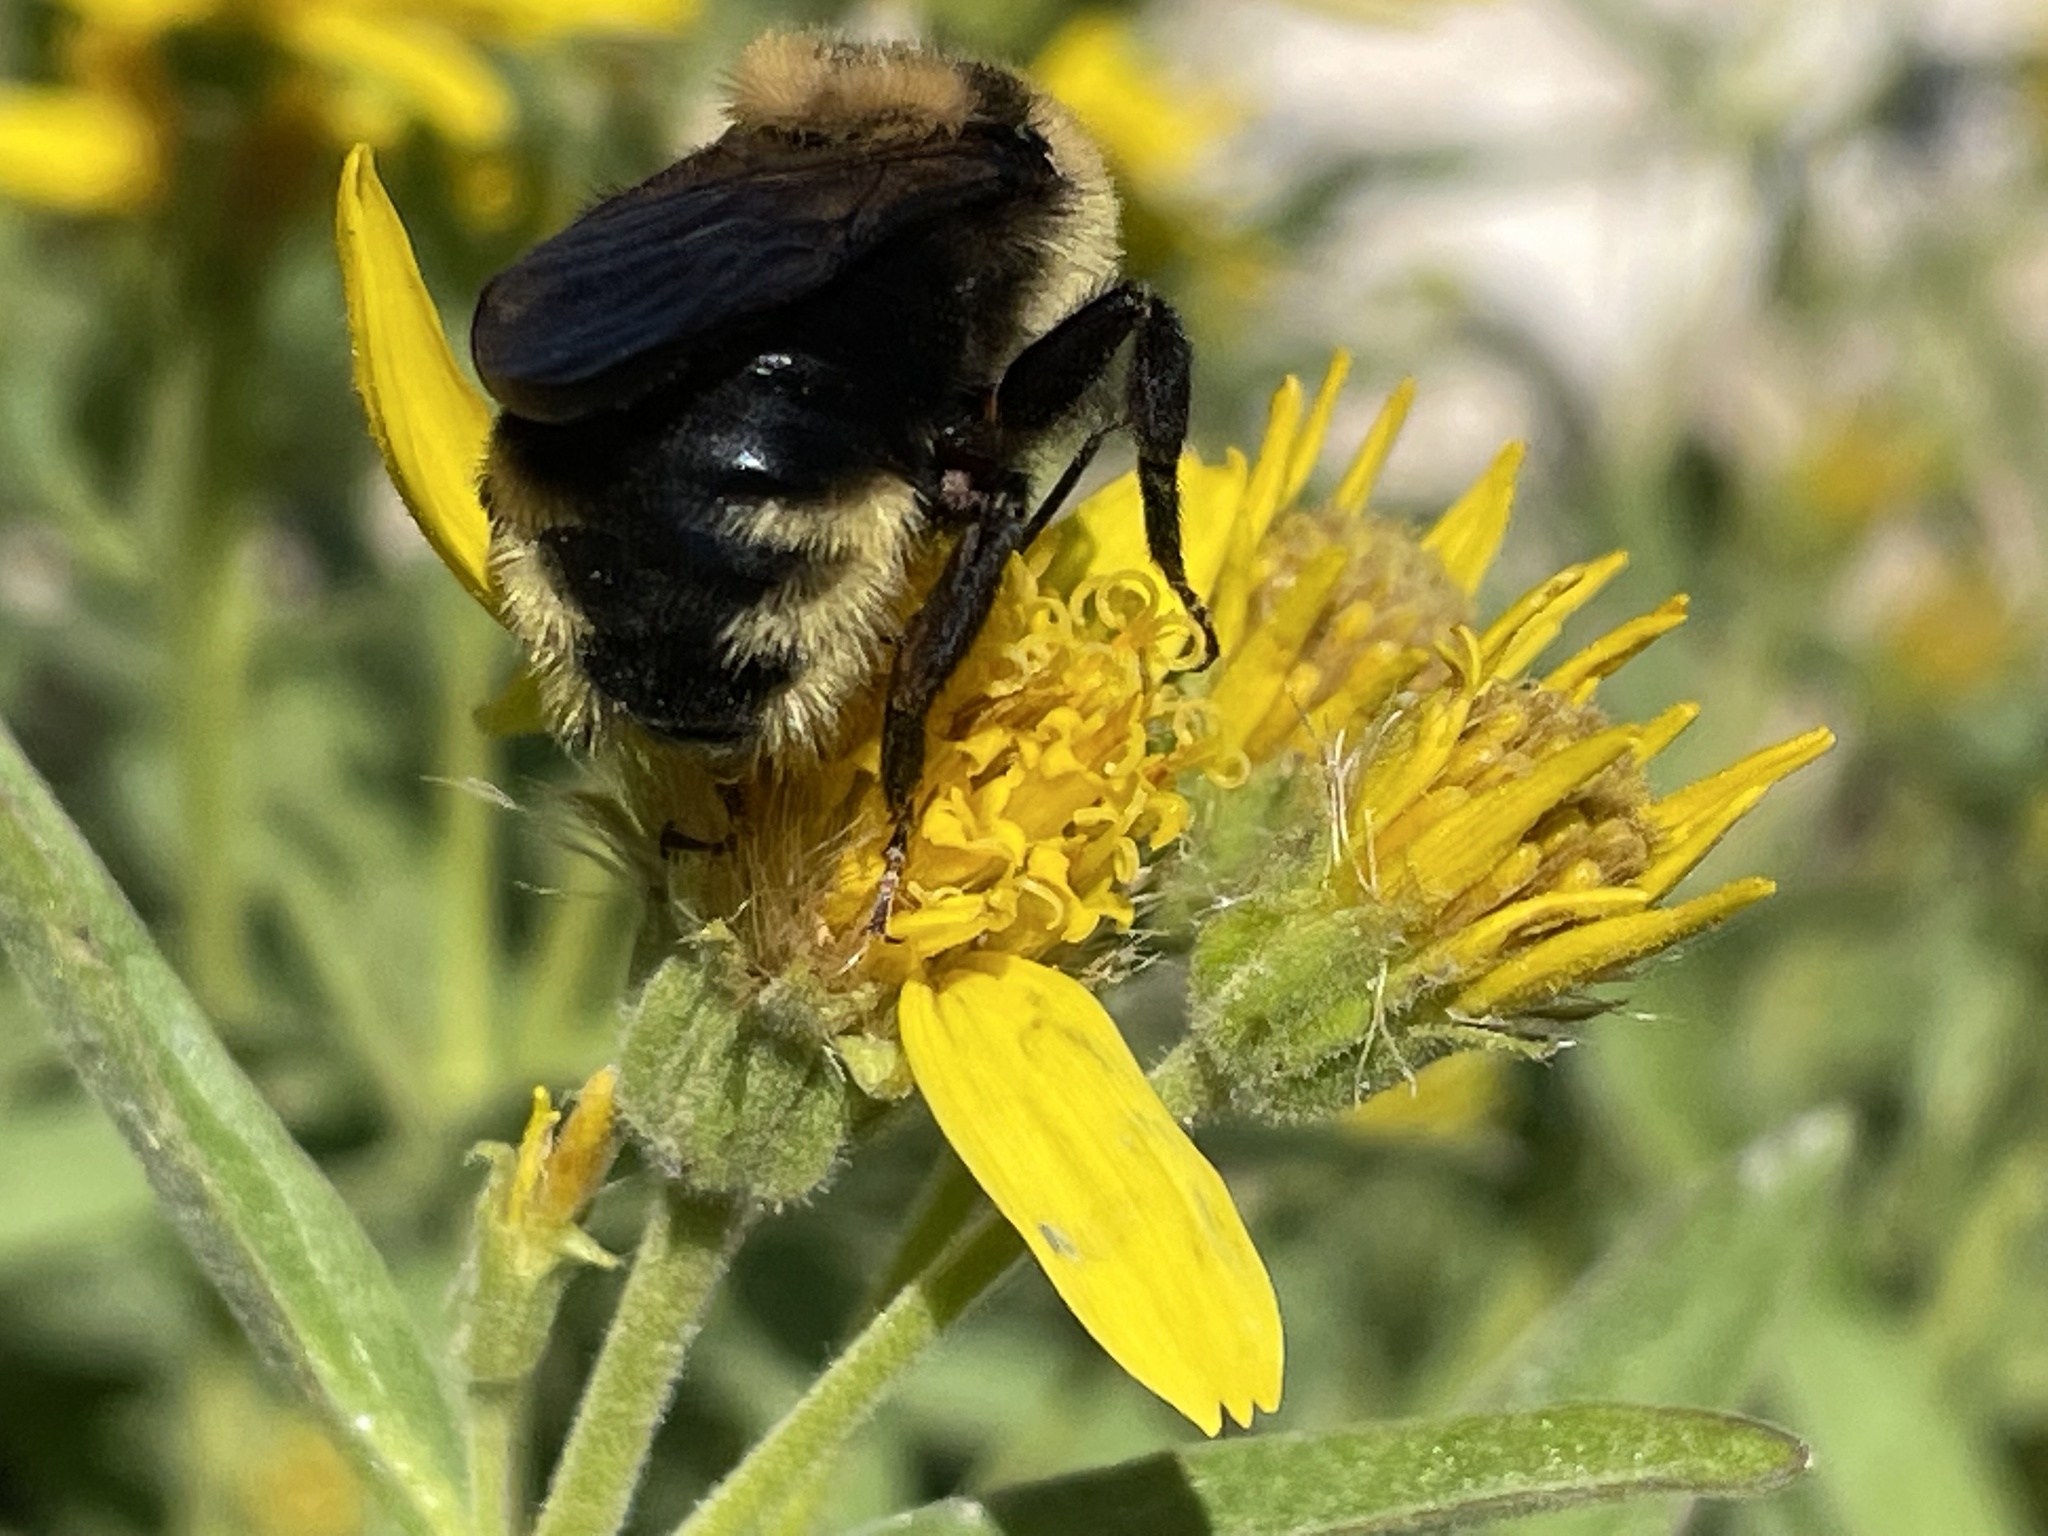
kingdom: Animalia
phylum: Arthropoda
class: Insecta
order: Hymenoptera
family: Apidae
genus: Bombus
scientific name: Bombus insularis
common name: Indiscriminate cuckoo bumble bee
